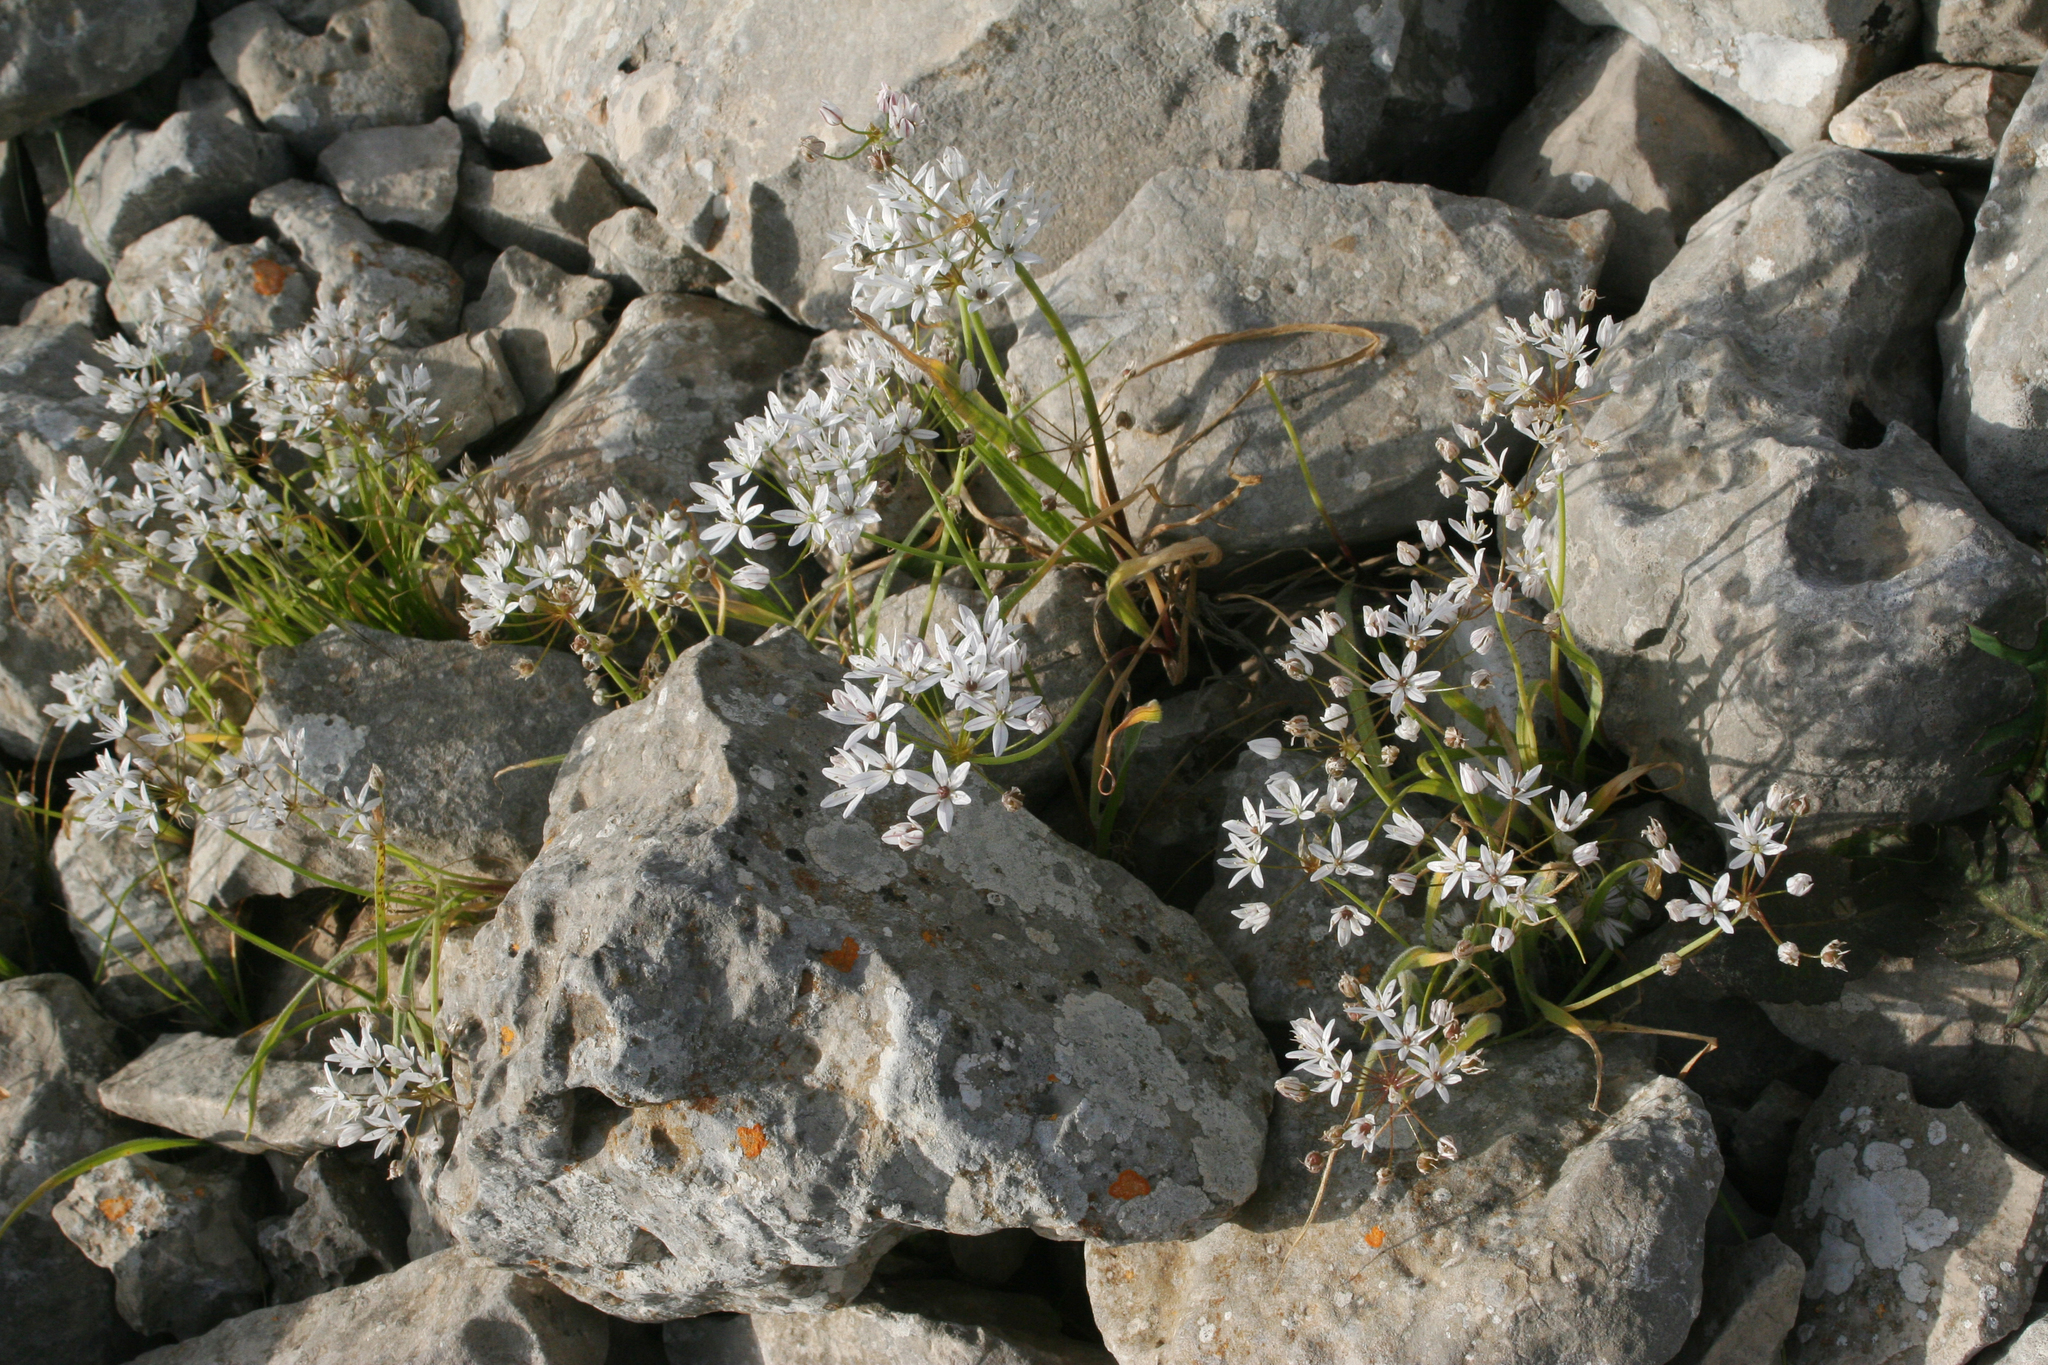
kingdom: Plantae
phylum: Tracheophyta
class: Liliopsida
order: Asparagales
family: Amaryllidaceae
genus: Allium
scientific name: Allium trifoliatum
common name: Pink garlic
